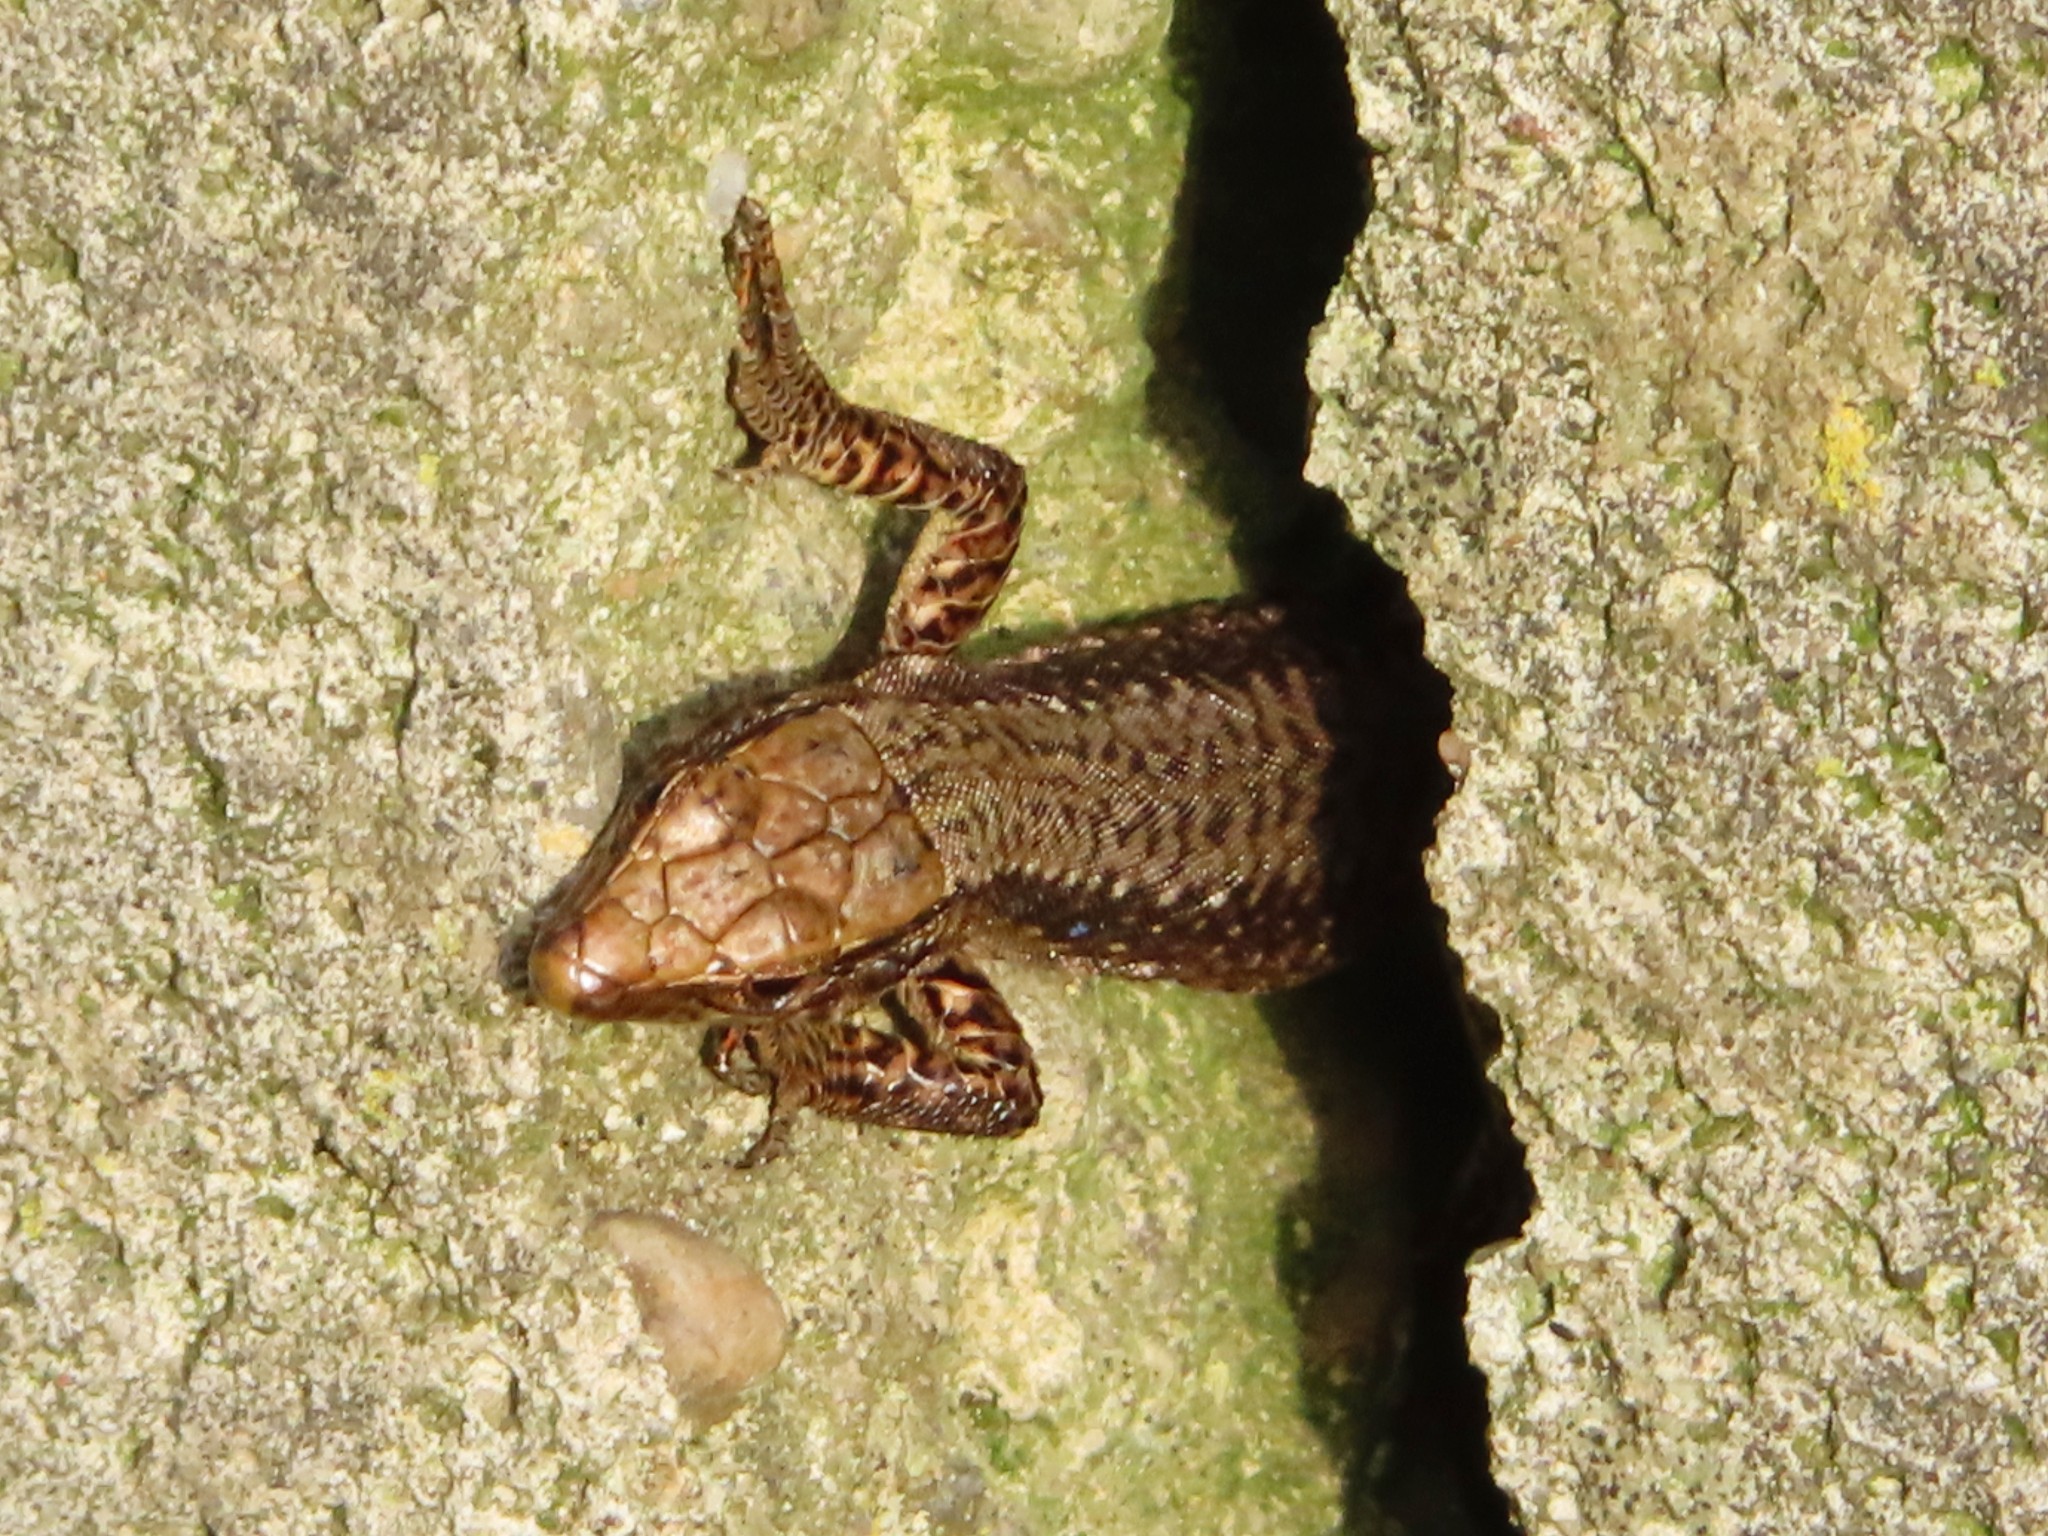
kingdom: Animalia
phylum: Chordata
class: Squamata
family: Lacertidae
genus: Darevskia
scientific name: Darevskia rudis
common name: Spiny-tailed lizard
